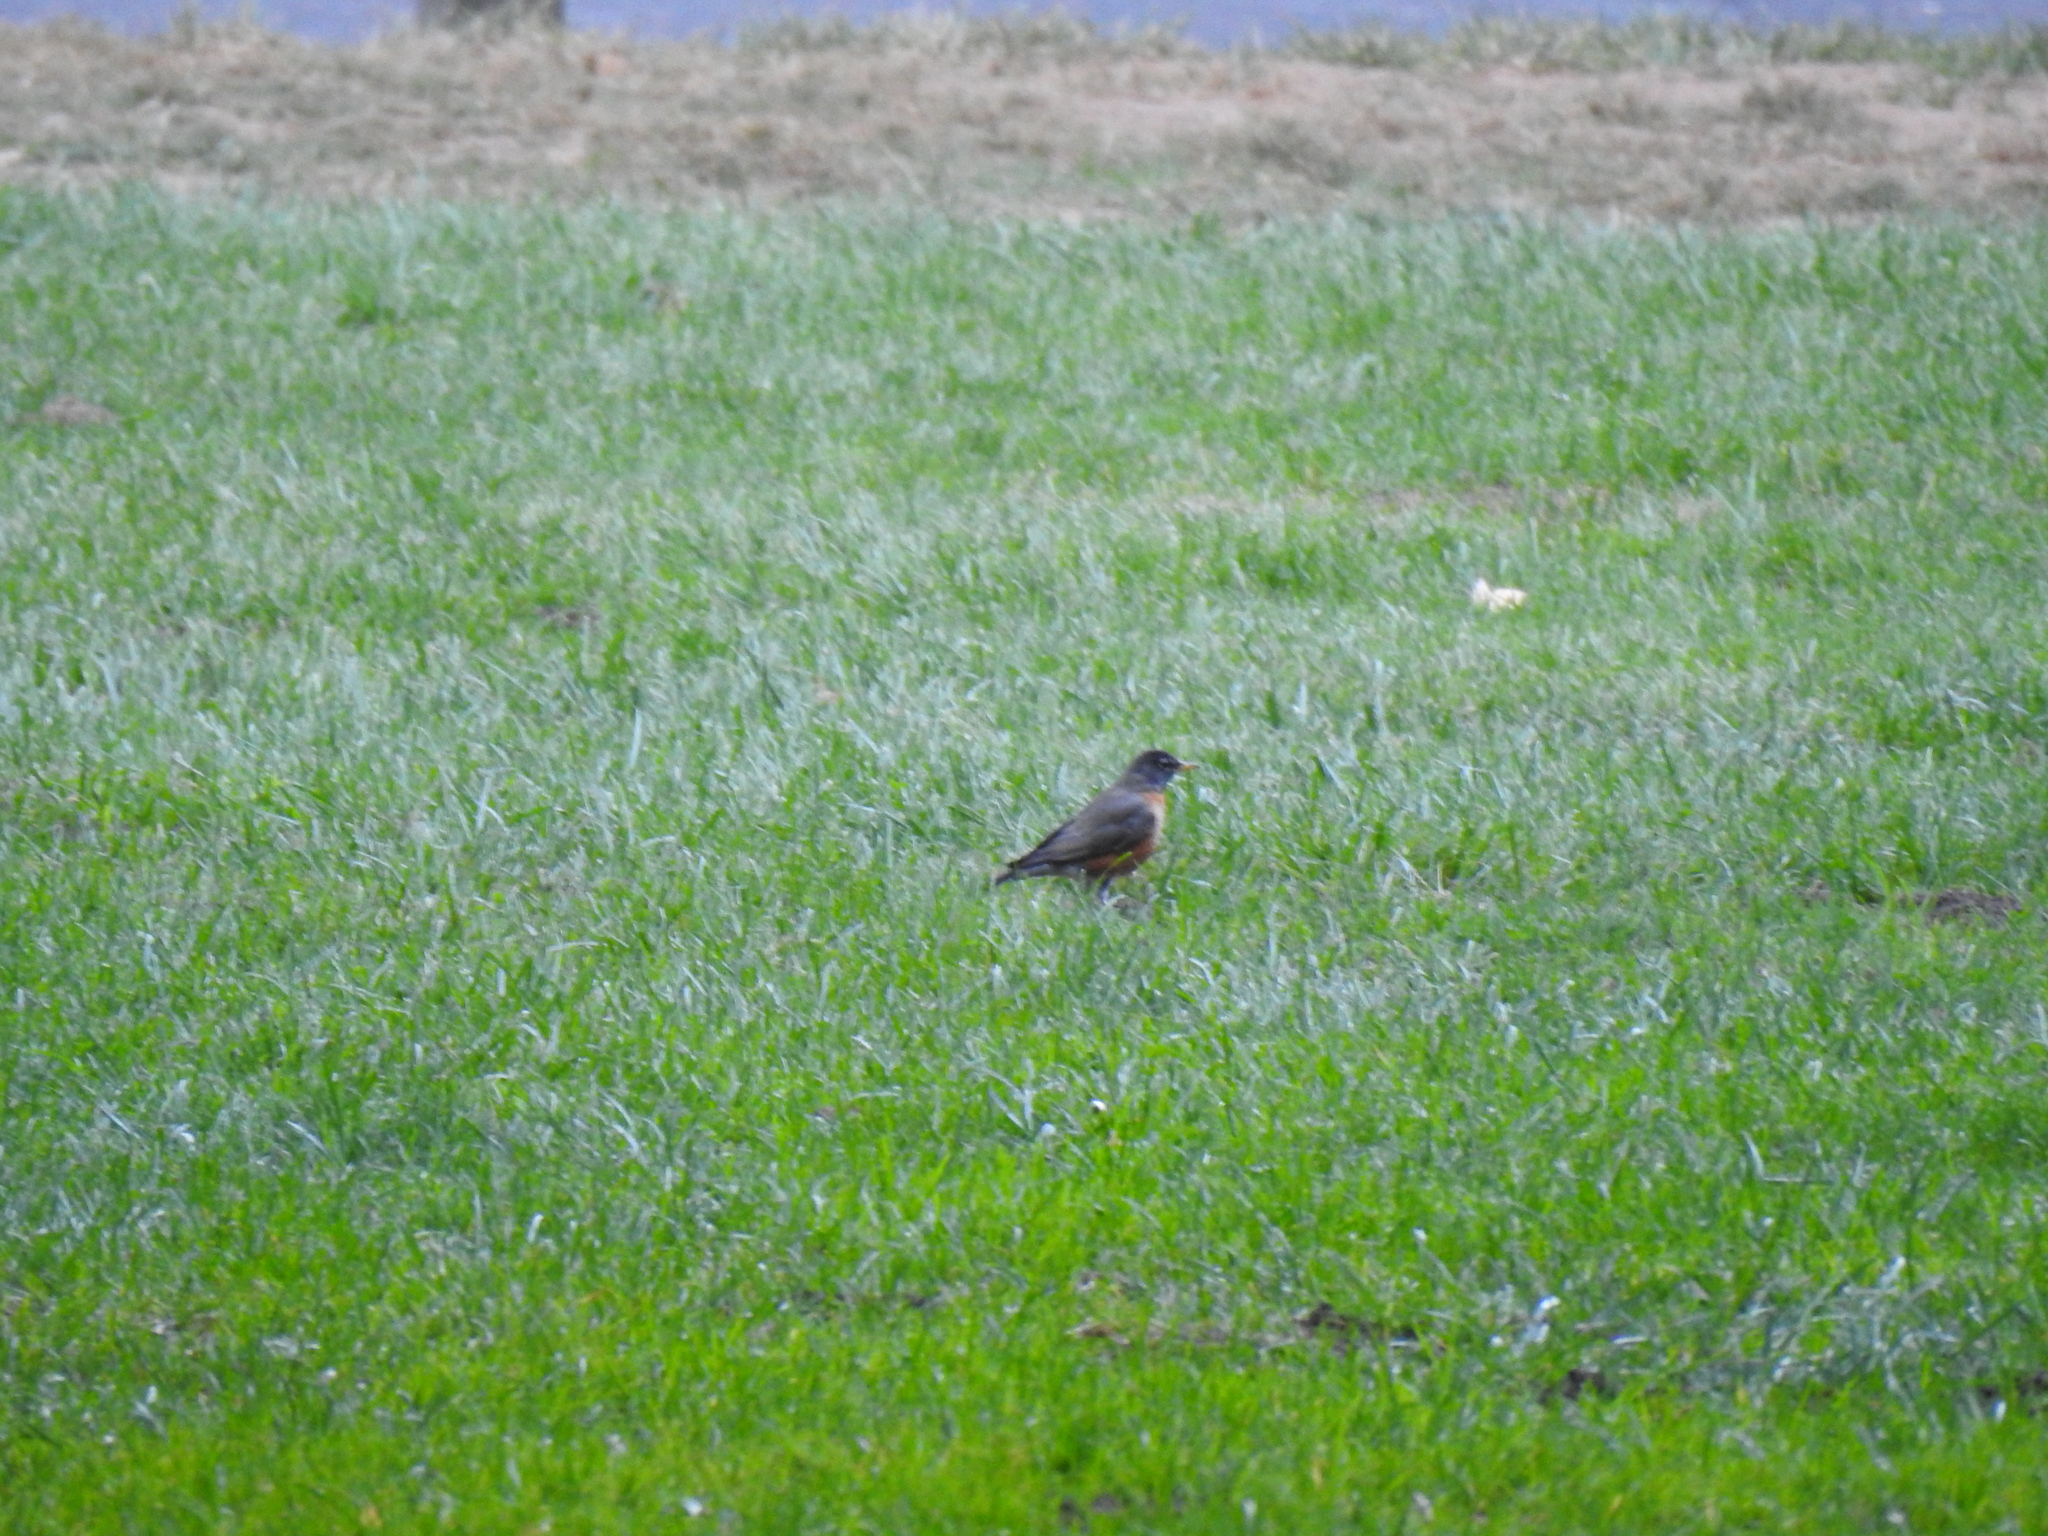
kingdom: Animalia
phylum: Chordata
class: Aves
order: Passeriformes
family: Turdidae
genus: Turdus
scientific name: Turdus migratorius
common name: American robin
